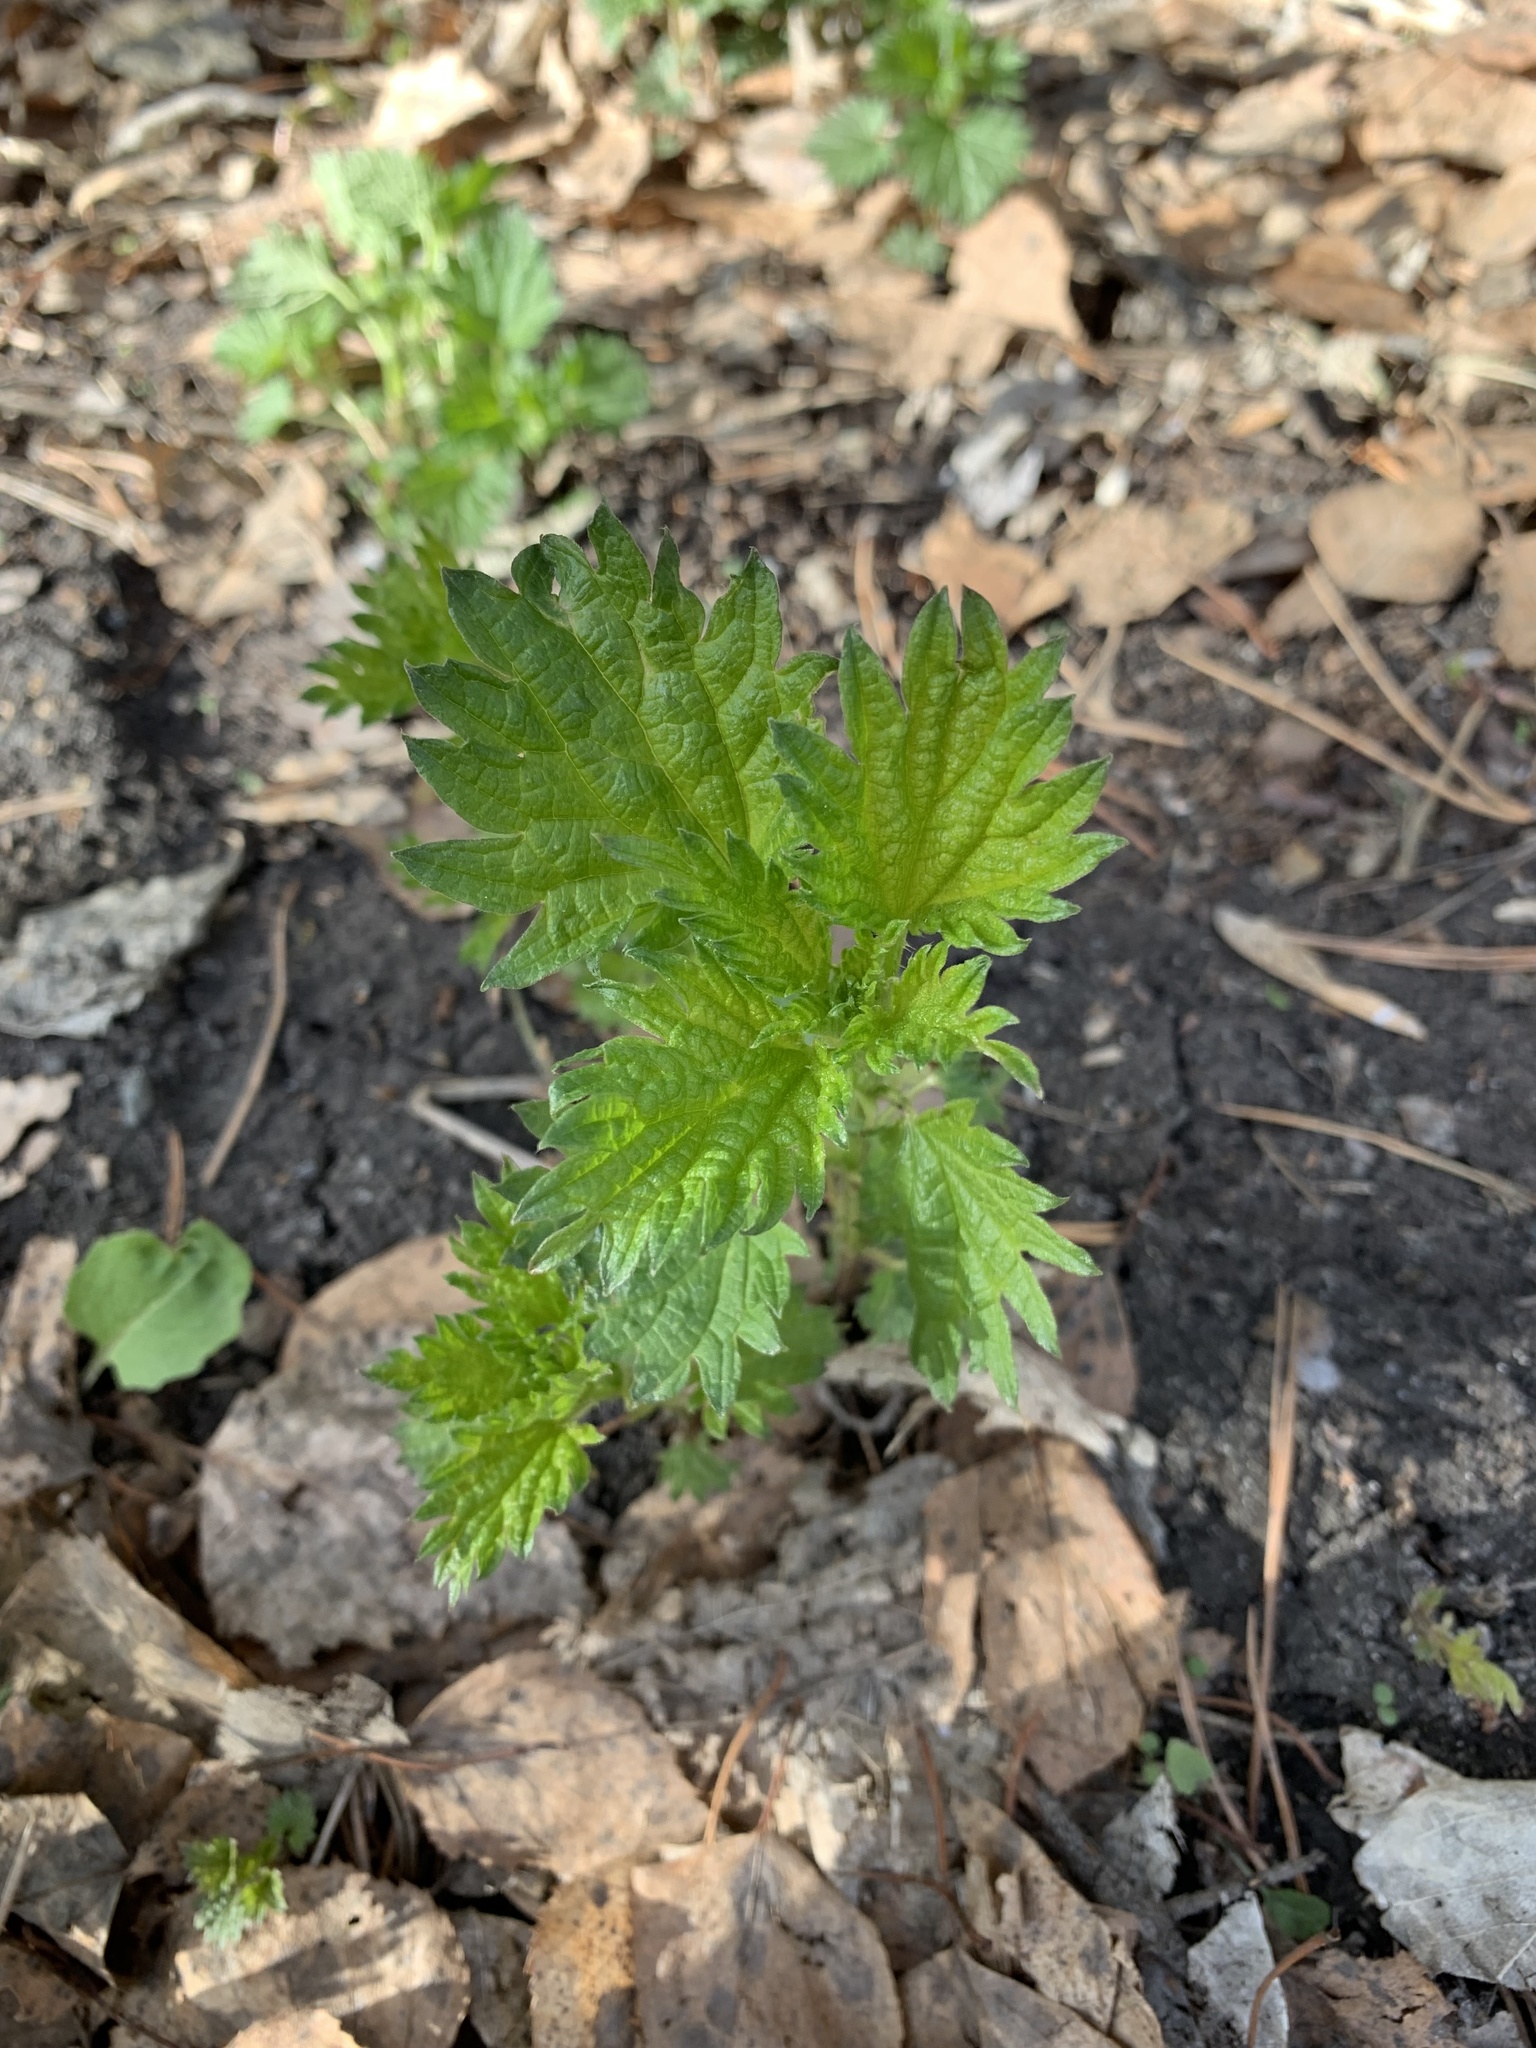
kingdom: Plantae
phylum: Tracheophyta
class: Magnoliopsida
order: Rosales
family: Urticaceae
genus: Urtica
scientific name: Urtica dioica
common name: Common nettle
